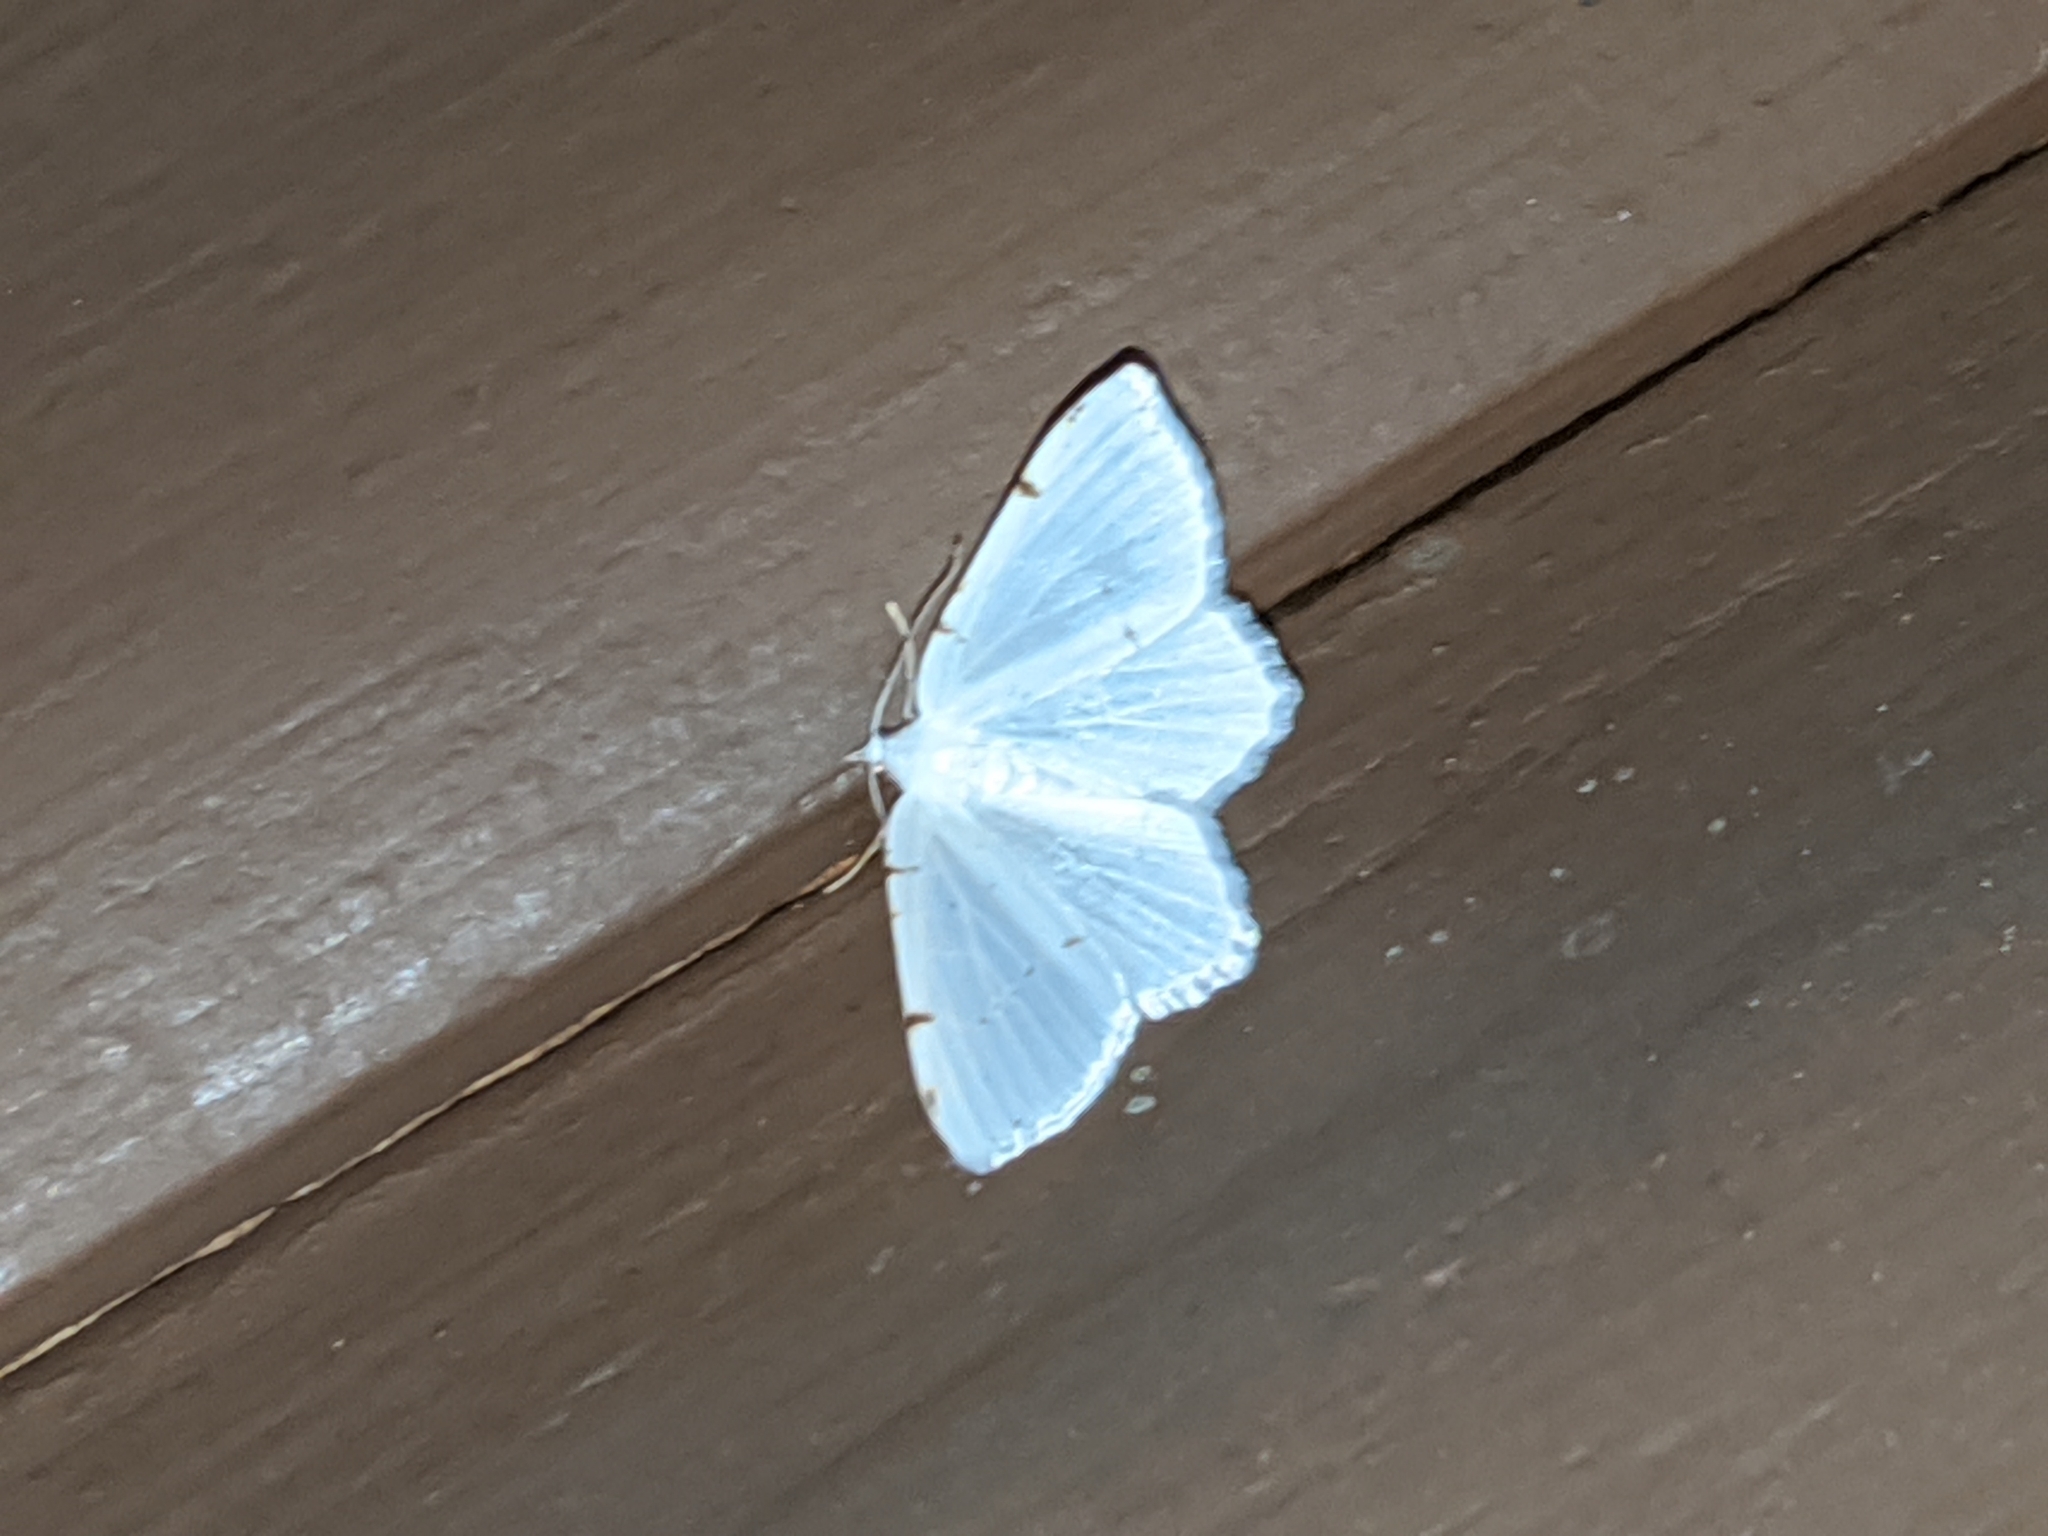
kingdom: Animalia
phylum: Arthropoda
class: Insecta
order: Lepidoptera
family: Geometridae
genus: Macaria
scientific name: Macaria pustularia
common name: Lesser maple spanworm moth
